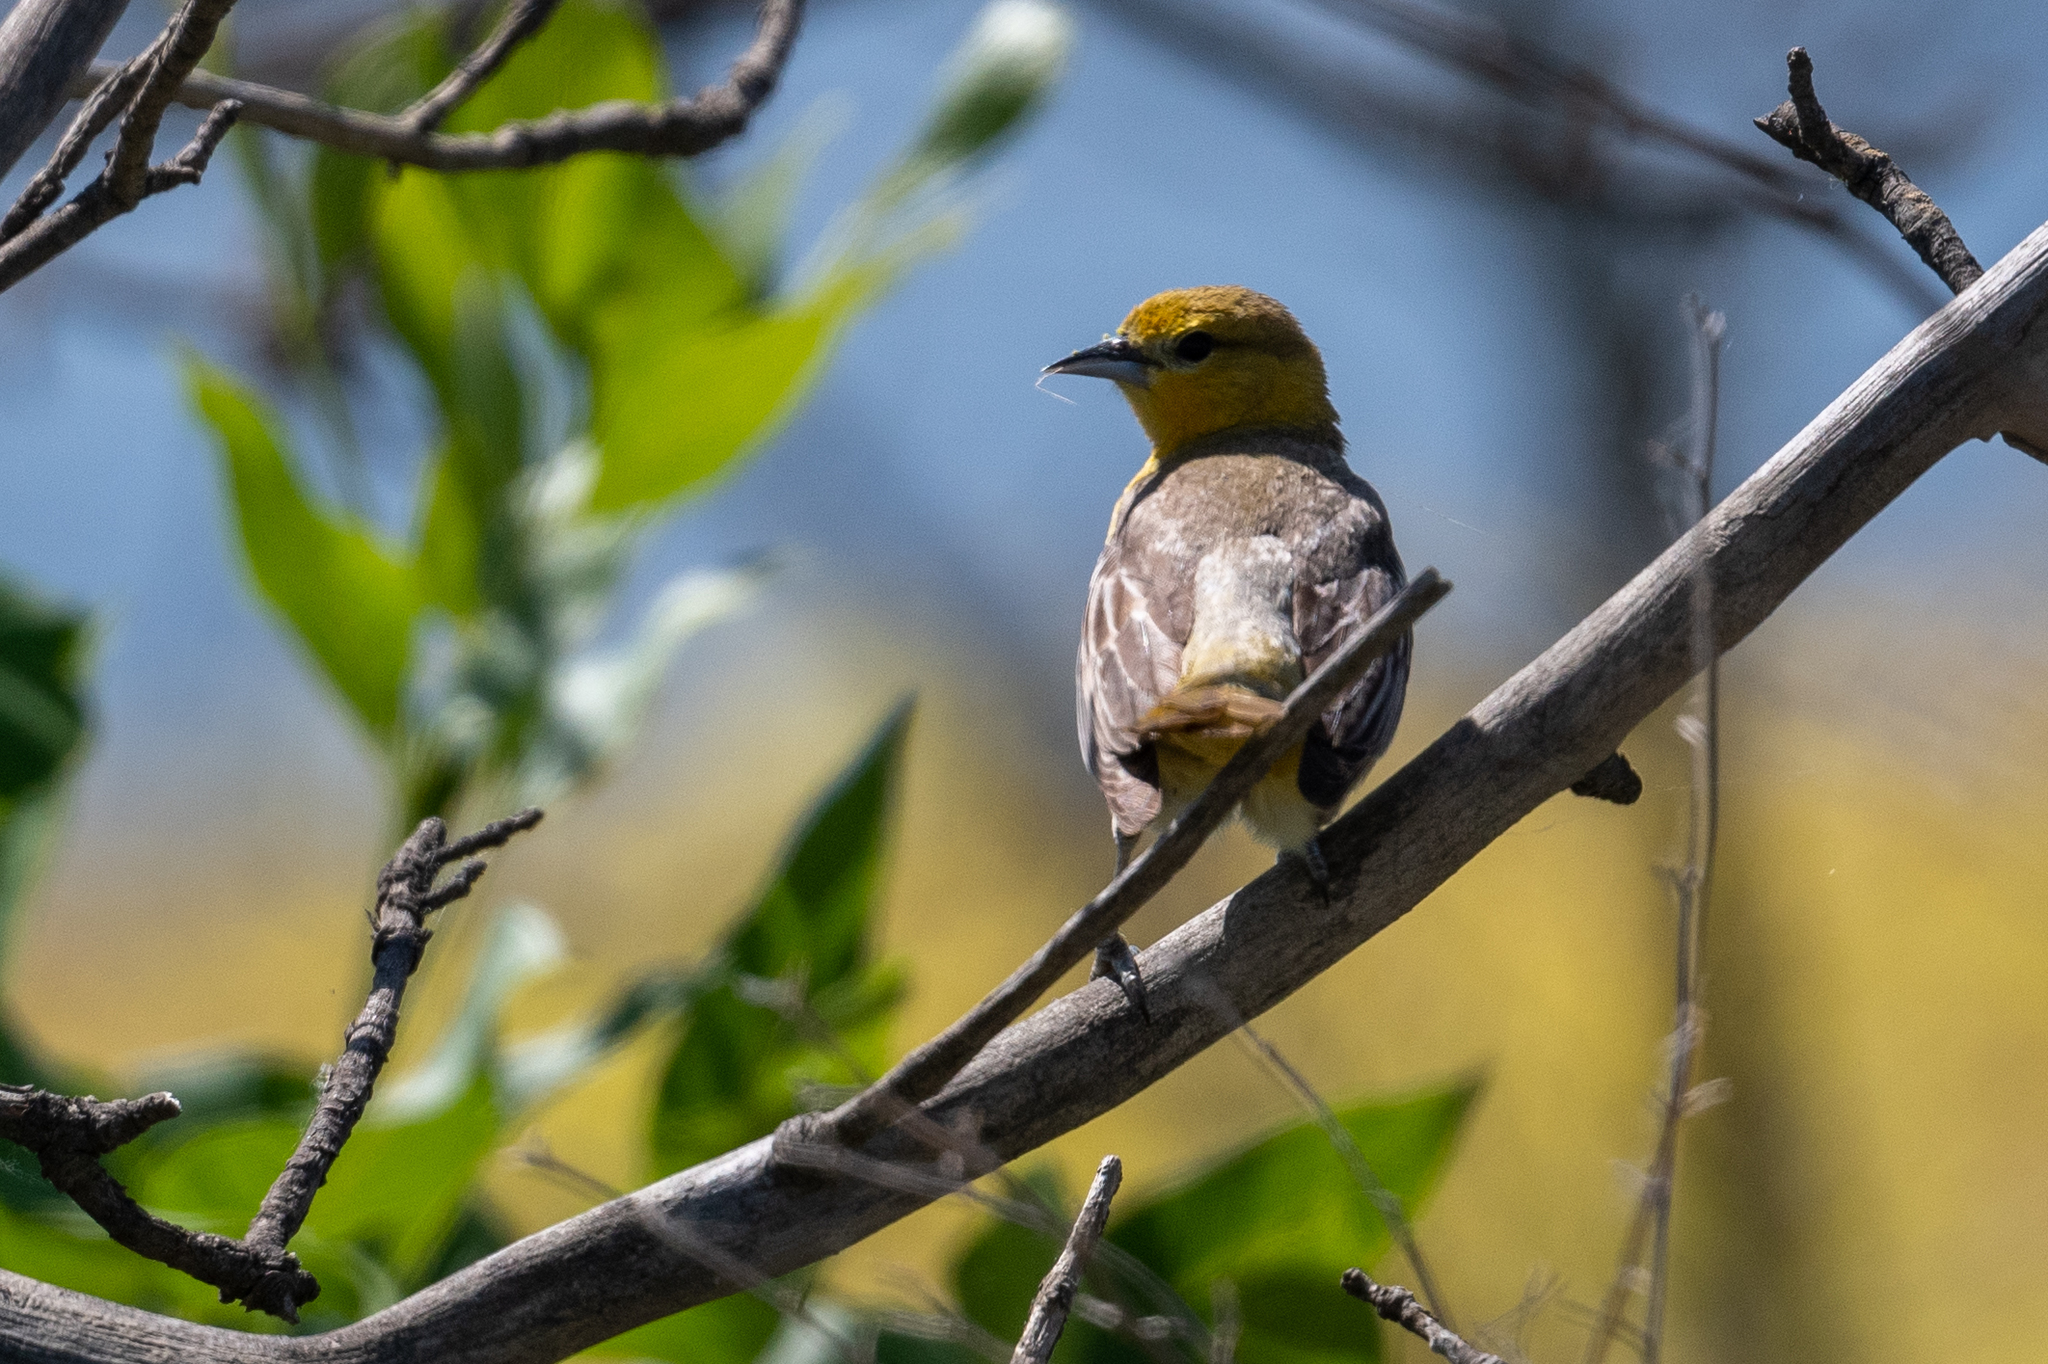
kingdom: Animalia
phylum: Chordata
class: Aves
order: Passeriformes
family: Icteridae
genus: Icterus
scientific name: Icterus bullockii
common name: Bullock's oriole
